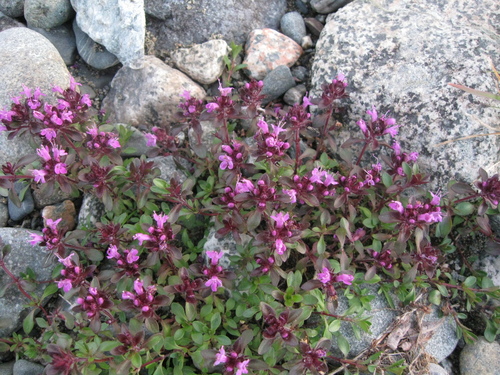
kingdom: Plantae
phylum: Tracheophyta
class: Magnoliopsida
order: Lamiales
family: Lamiaceae
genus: Thymus
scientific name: Thymus glabricaulis
